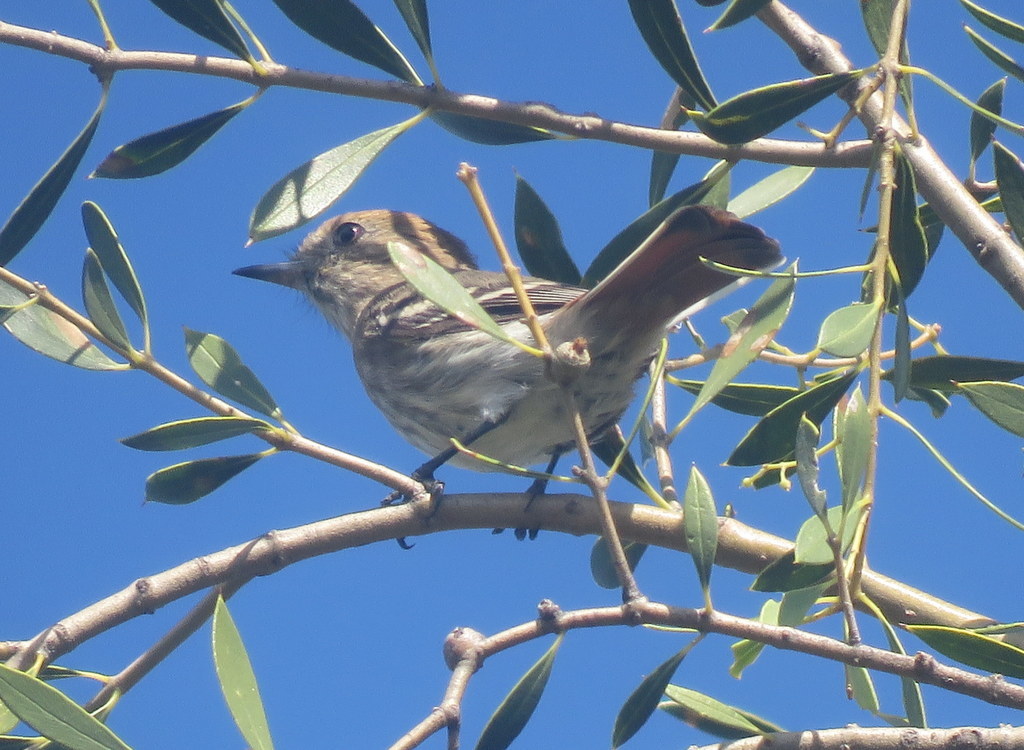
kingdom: Animalia
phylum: Chordata
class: Aves
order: Passeriformes
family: Tyrannidae
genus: Knipolegus
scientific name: Knipolegus striaticeps
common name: Cinereous tyrant
